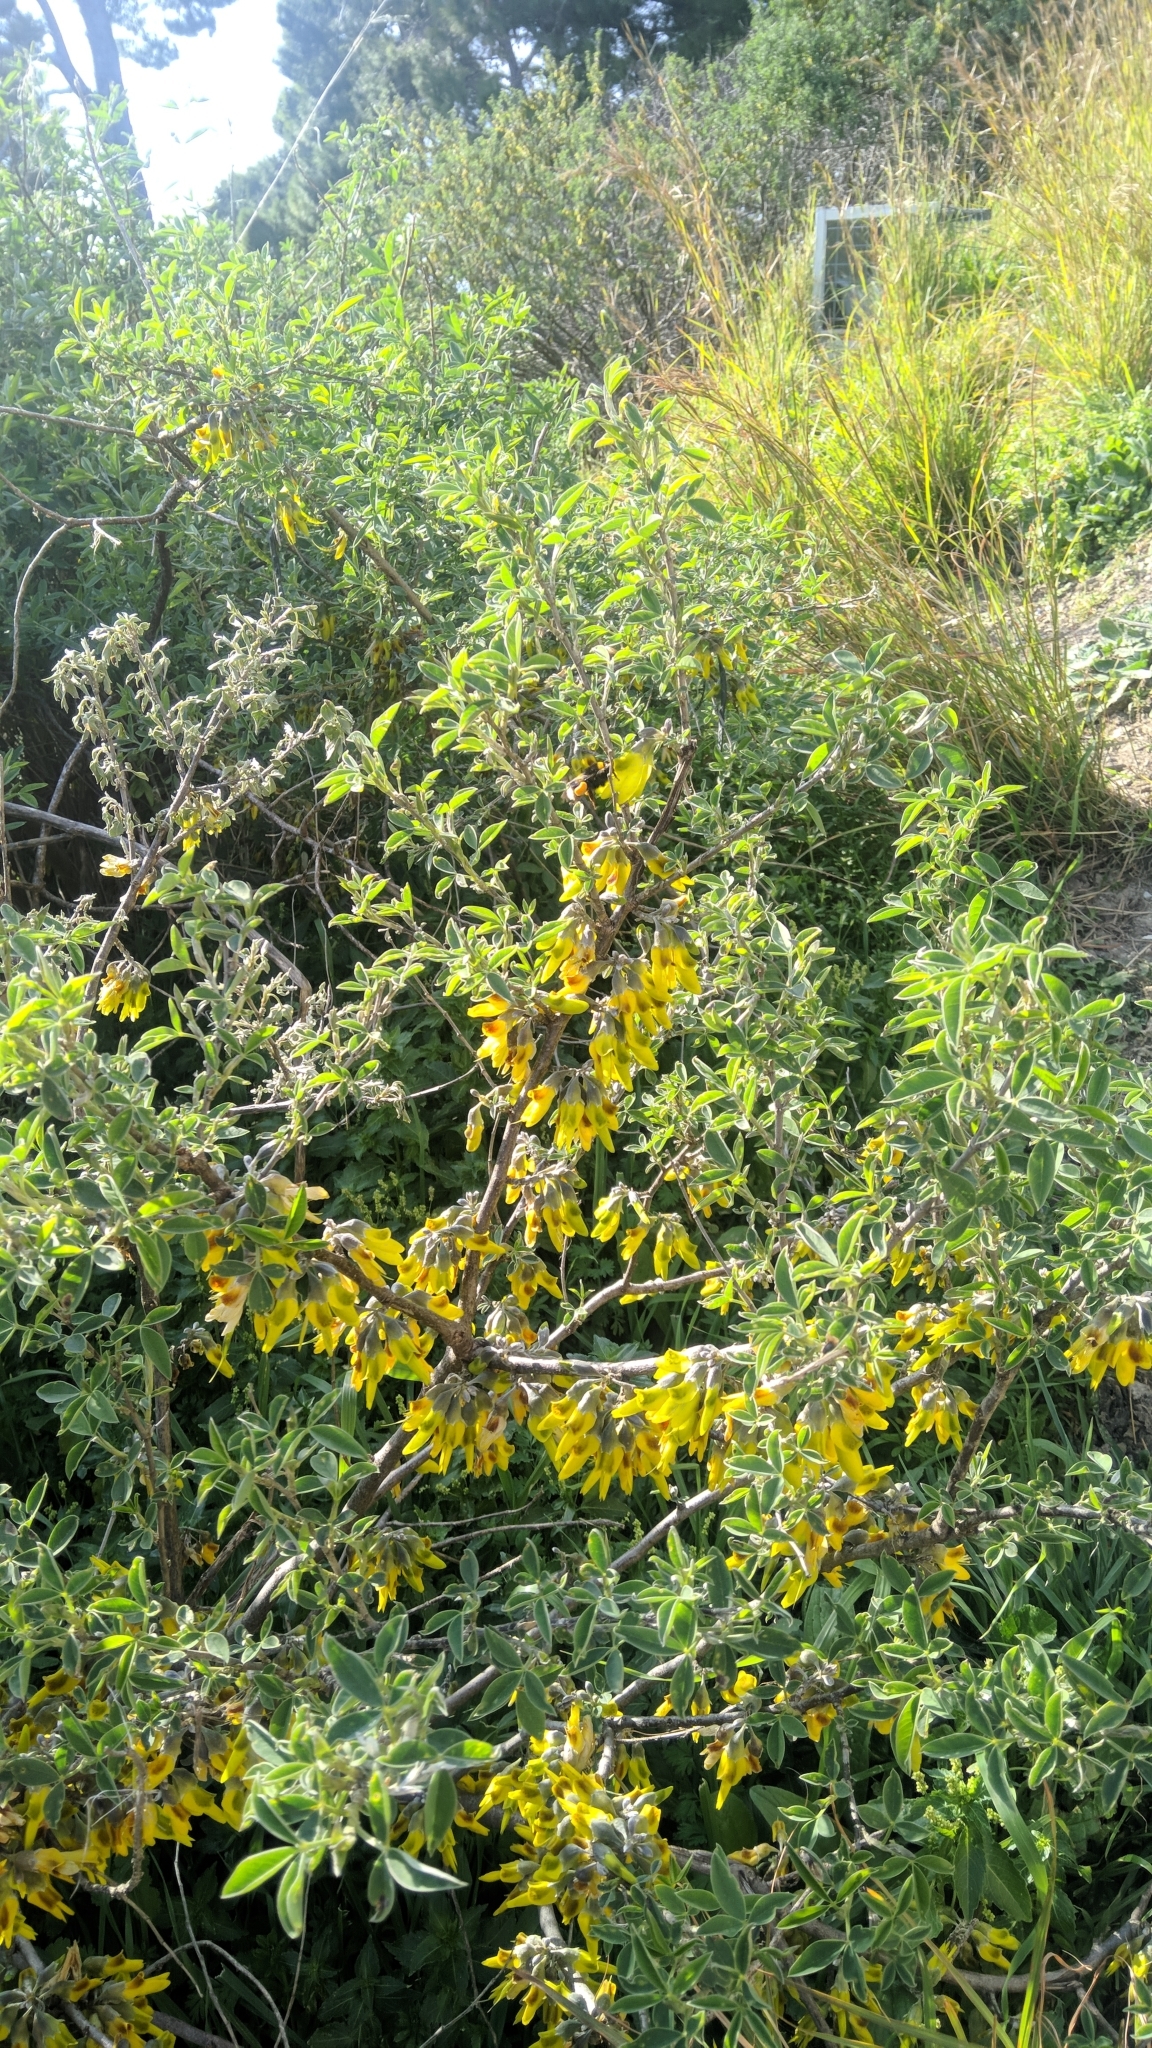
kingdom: Plantae
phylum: Tracheophyta
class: Magnoliopsida
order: Fabales
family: Fabaceae
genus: Anagyris
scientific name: Anagyris foetida
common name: Stinking bean trefoil
